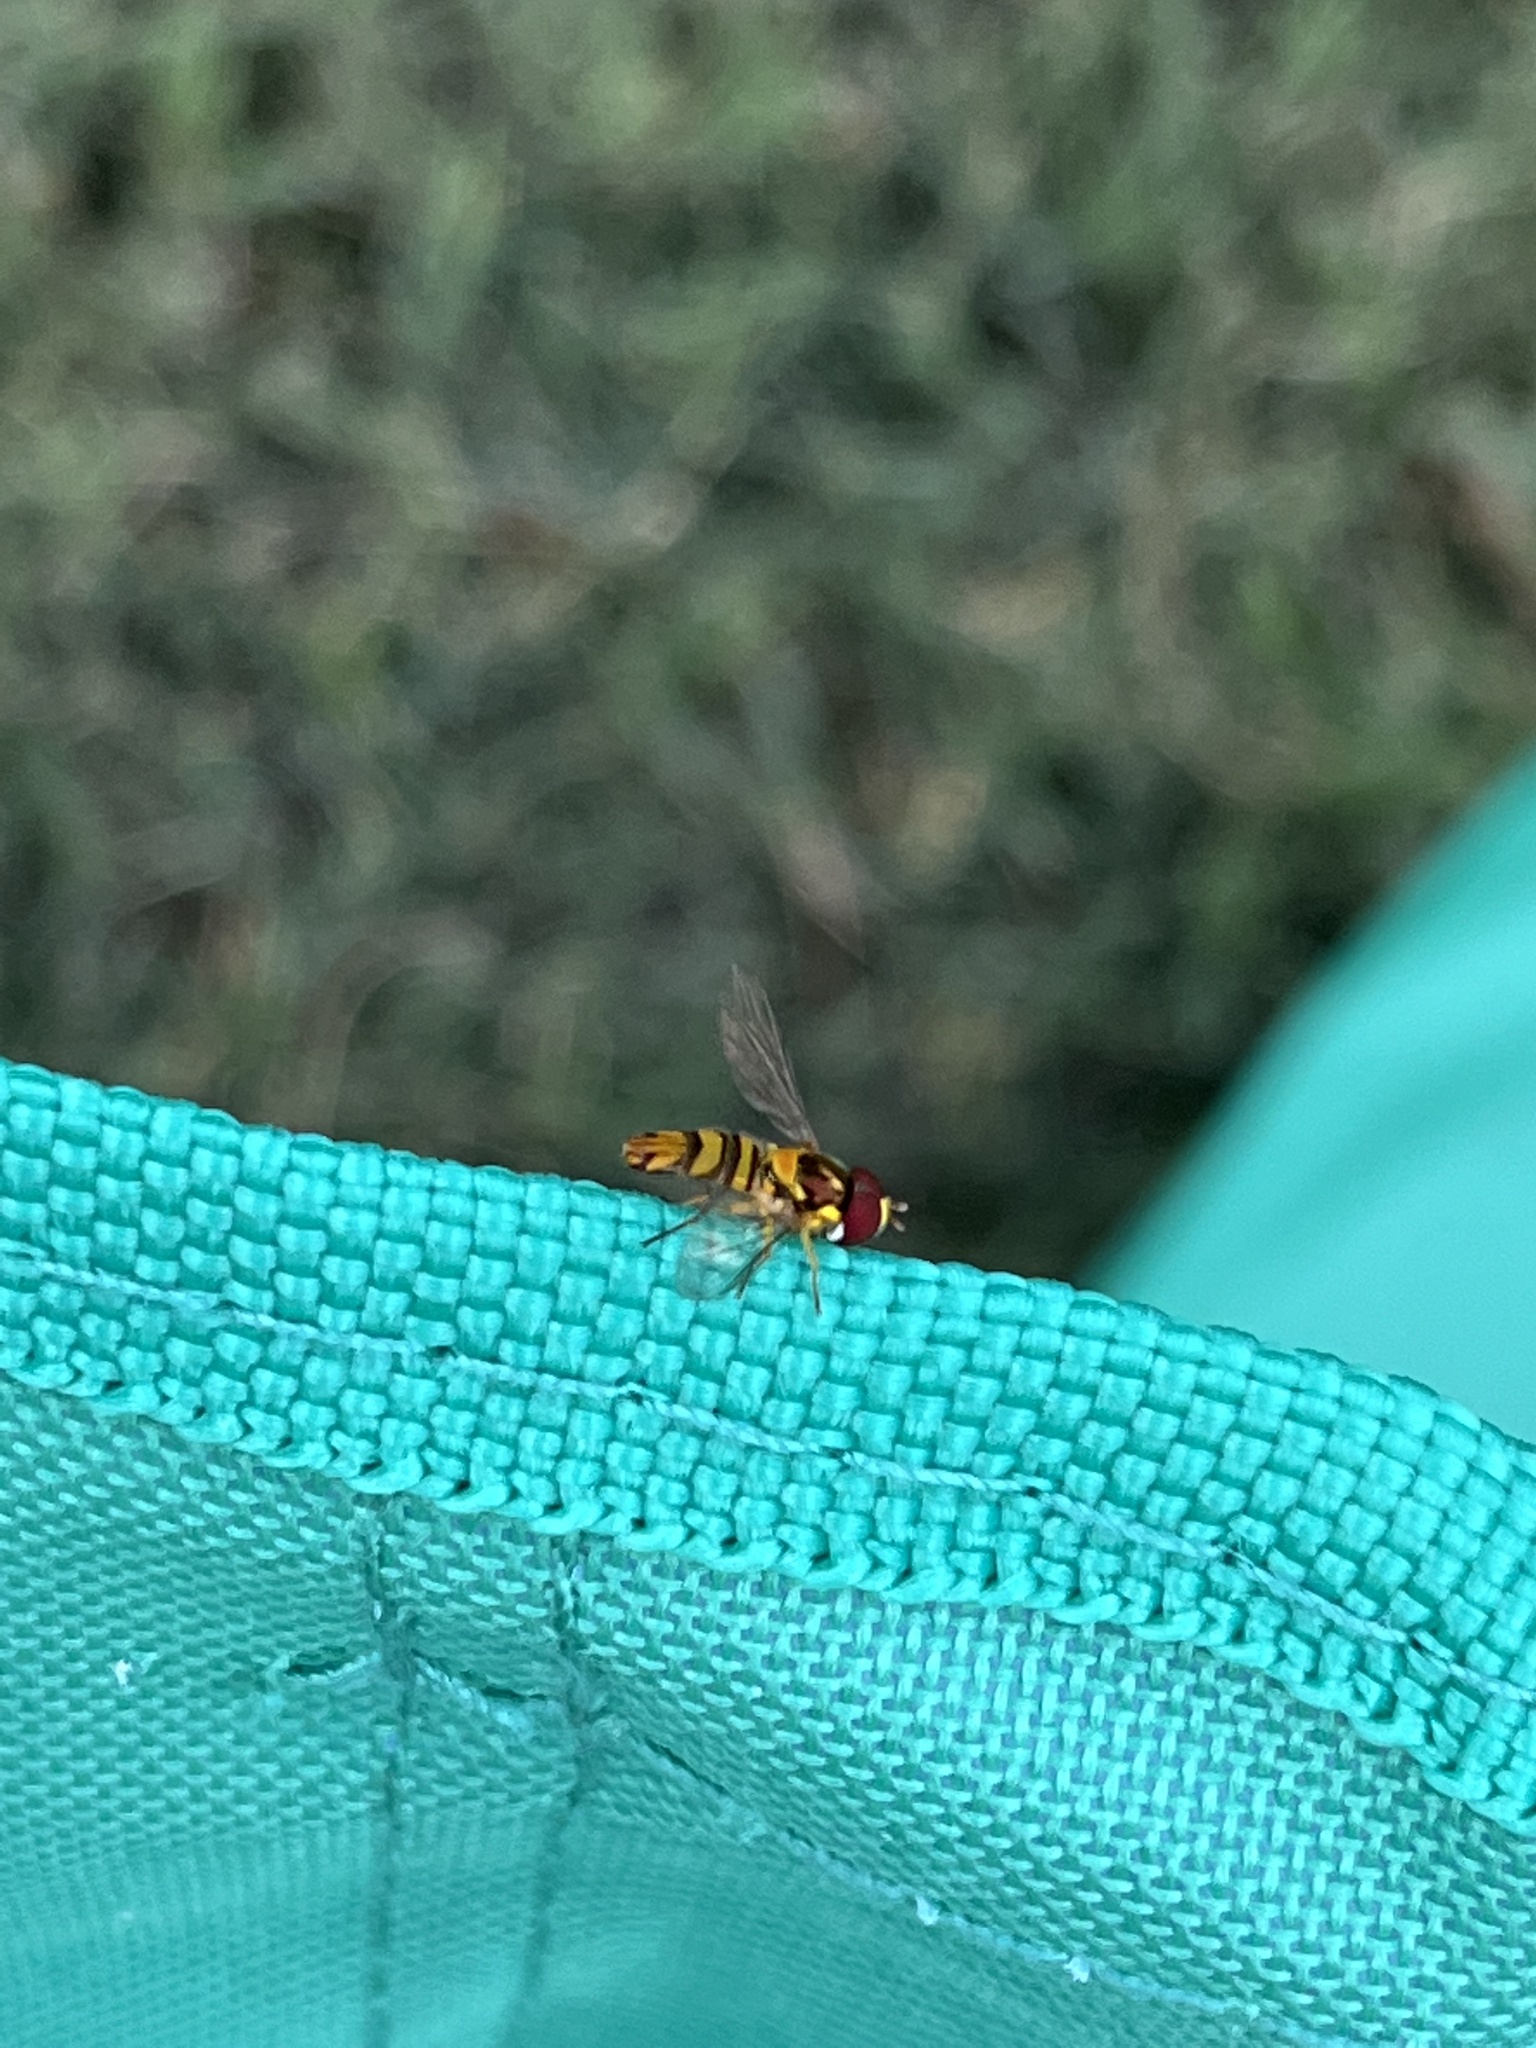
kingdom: Animalia
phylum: Arthropoda
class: Insecta
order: Diptera
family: Syrphidae
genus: Allograpta
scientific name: Allograpta obliqua
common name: Common oblique syrphid
